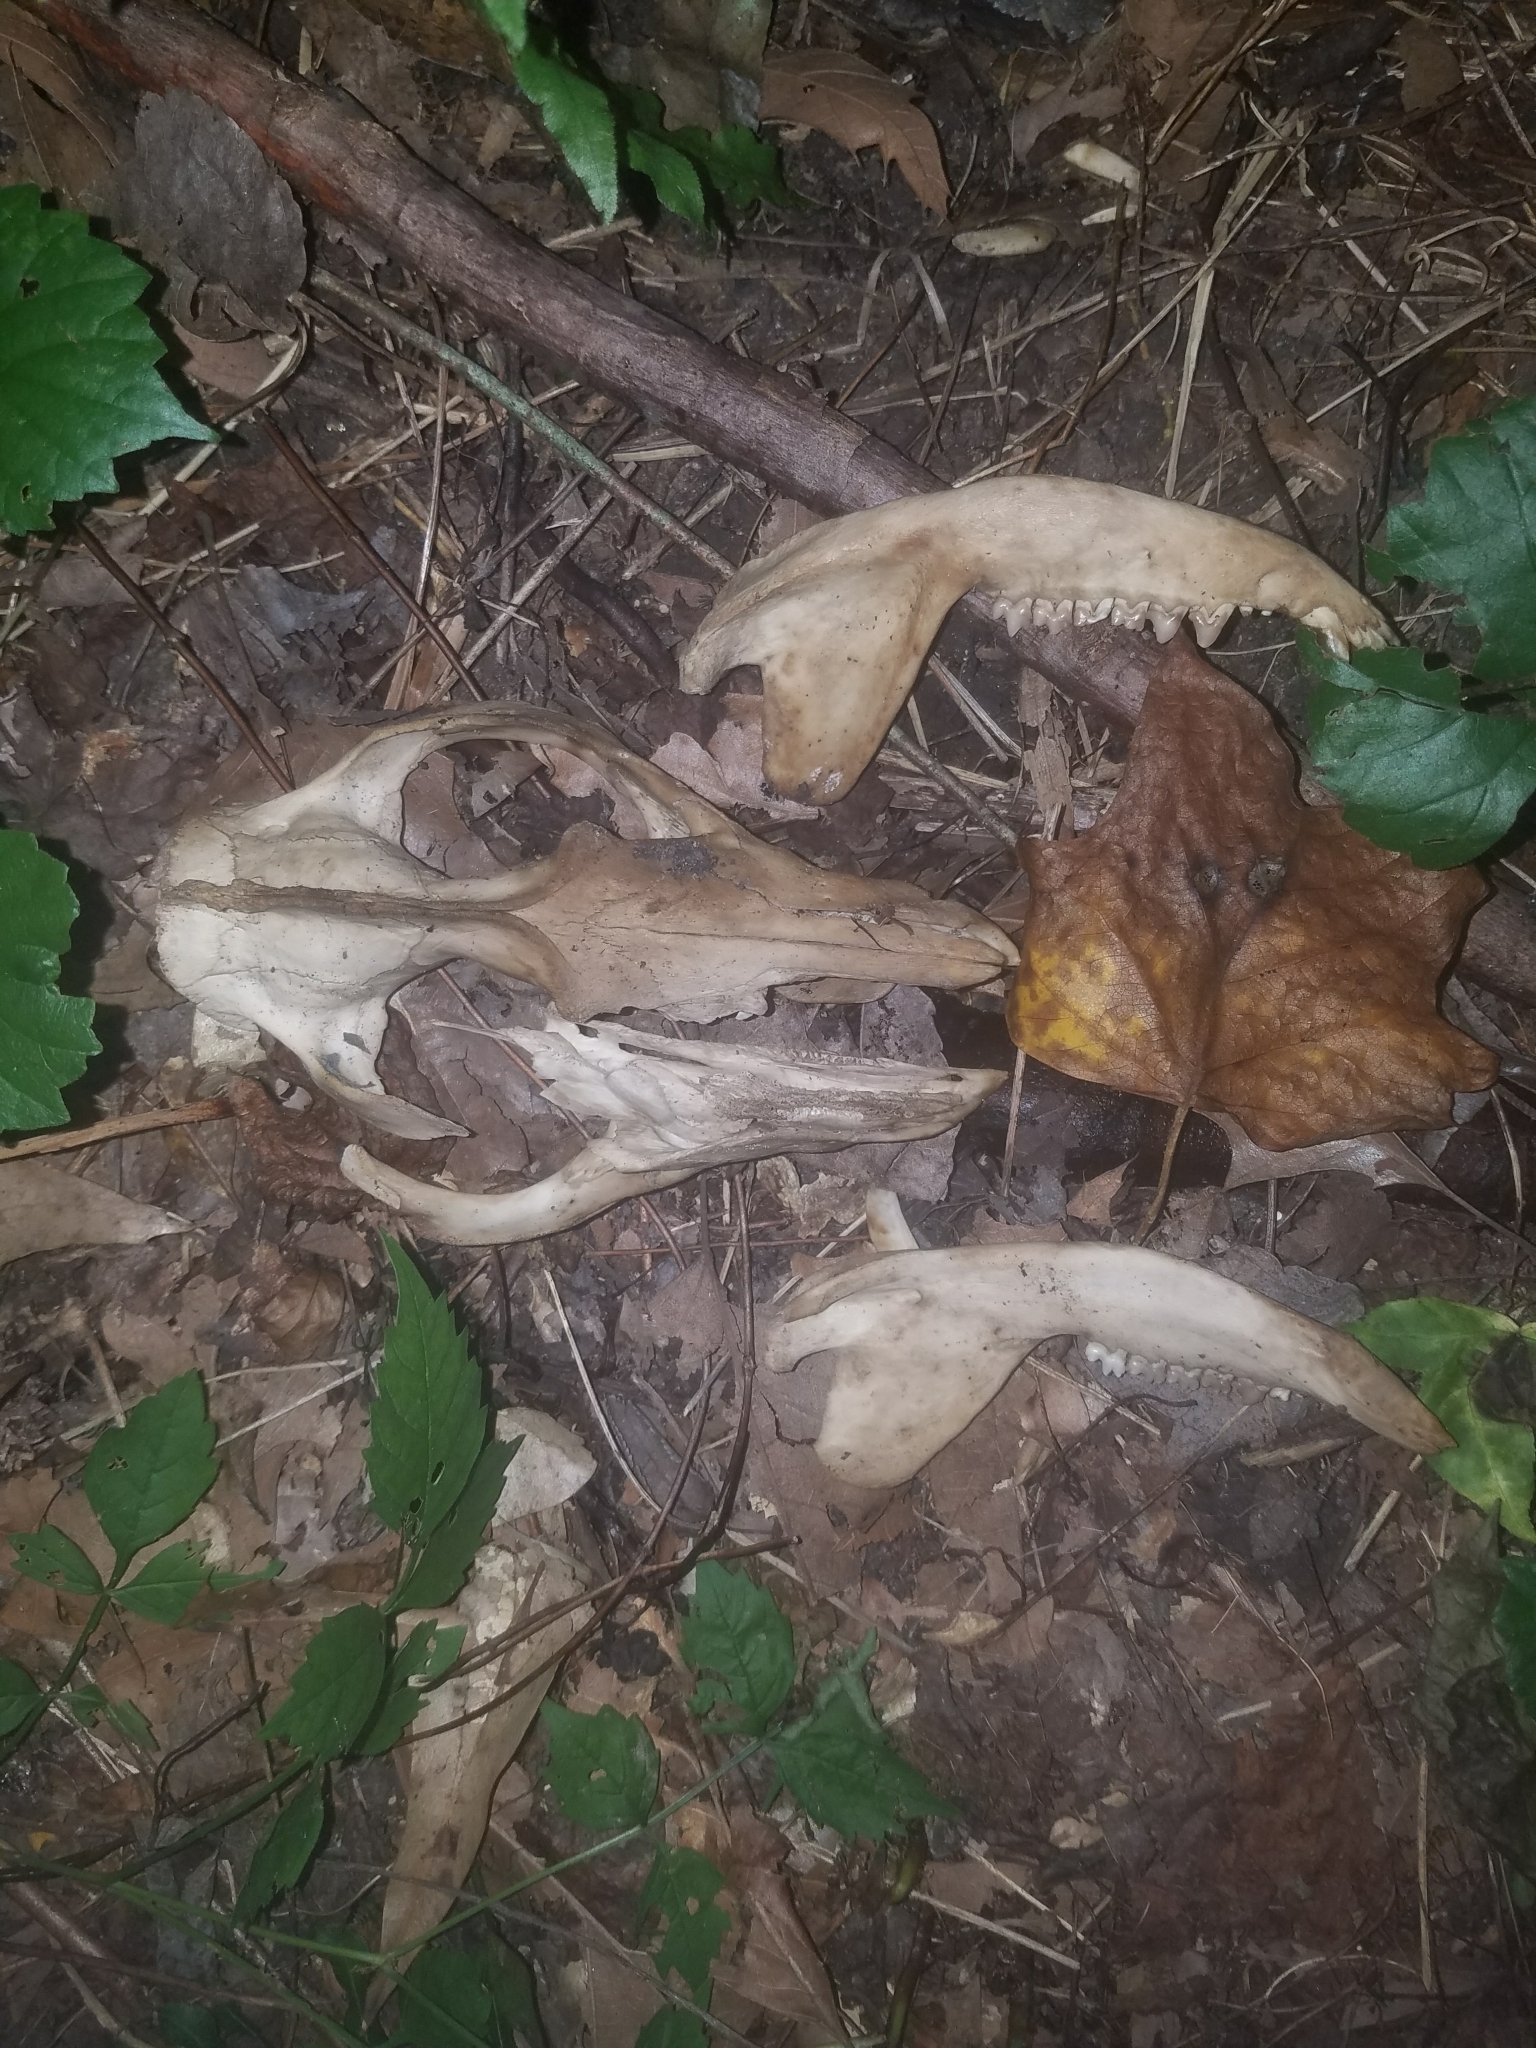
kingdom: Animalia
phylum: Chordata
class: Mammalia
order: Didelphimorphia
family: Didelphidae
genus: Didelphis
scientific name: Didelphis virginiana
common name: Virginia opossum
